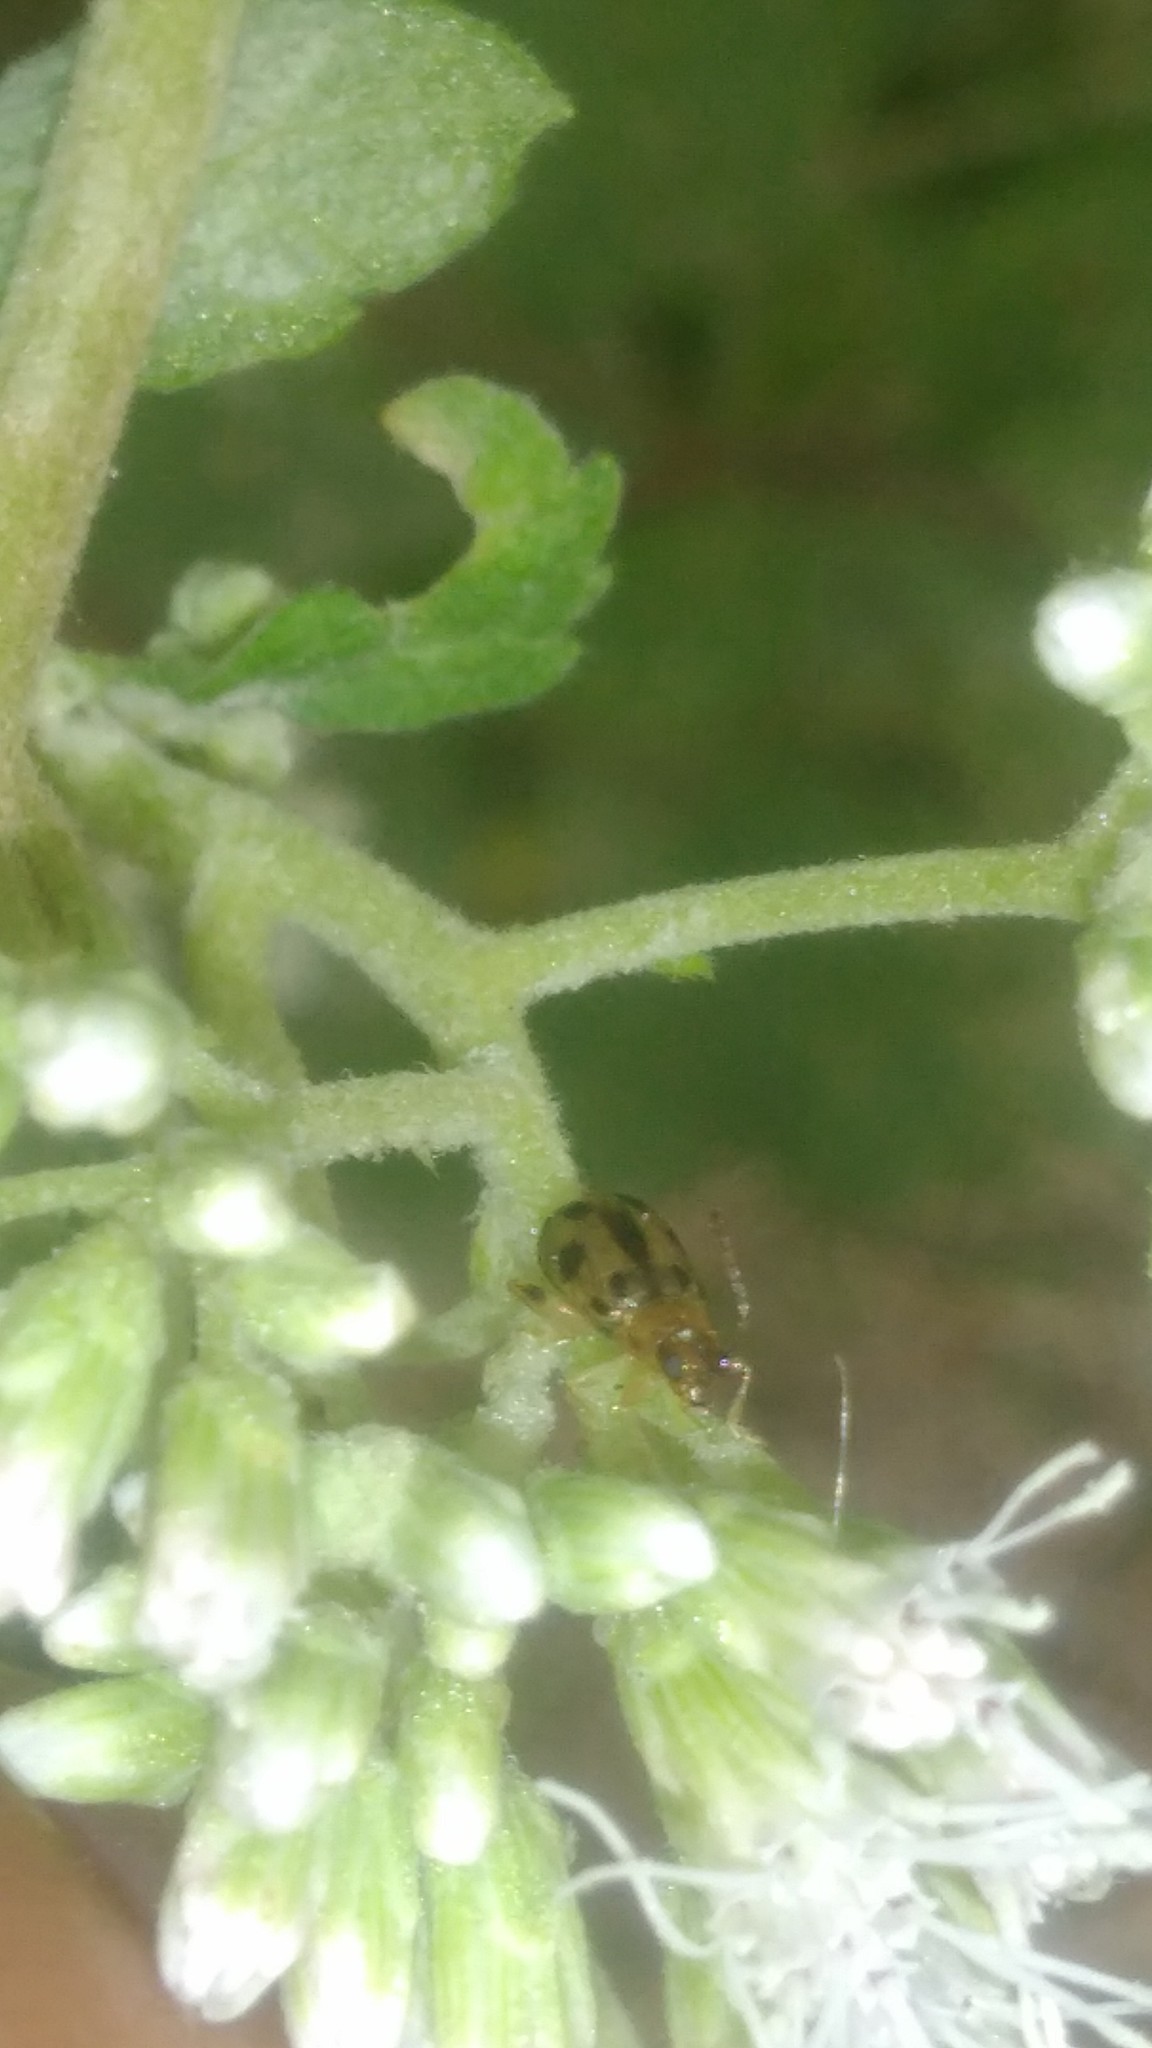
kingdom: Animalia
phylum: Arthropoda
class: Insecta
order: Coleoptera
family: Chrysomelidae
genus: Systena
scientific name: Systena
